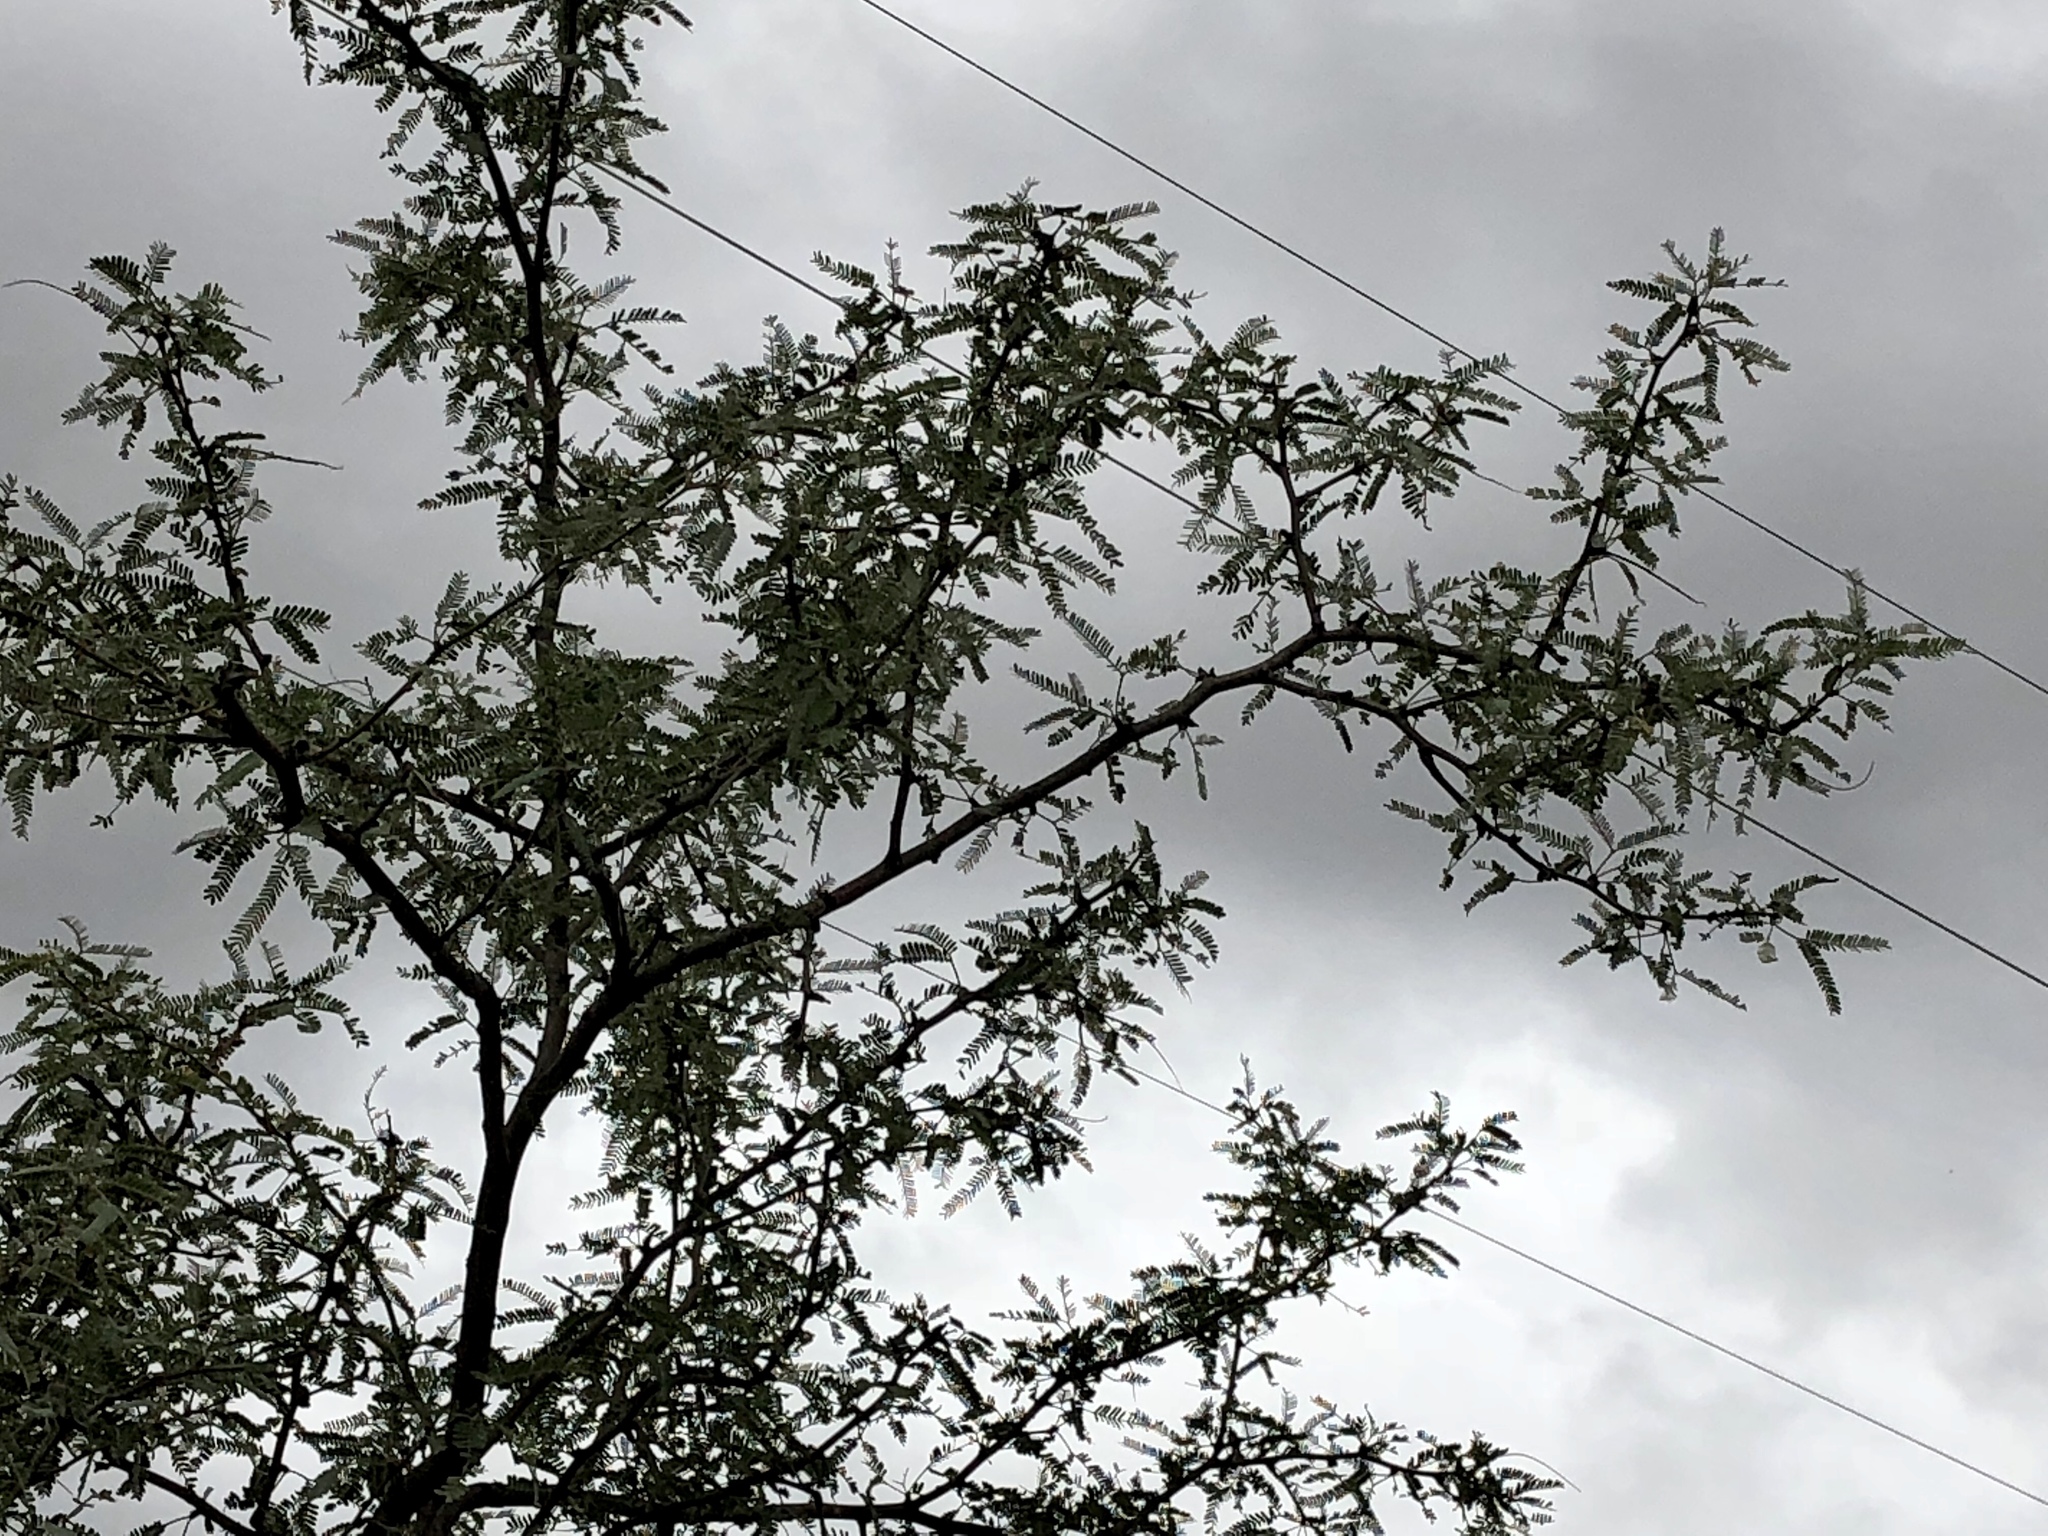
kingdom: Plantae
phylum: Tracheophyta
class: Magnoliopsida
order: Fabales
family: Fabaceae
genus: Prosopis
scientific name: Prosopis velutina
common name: Velvet mesquite
